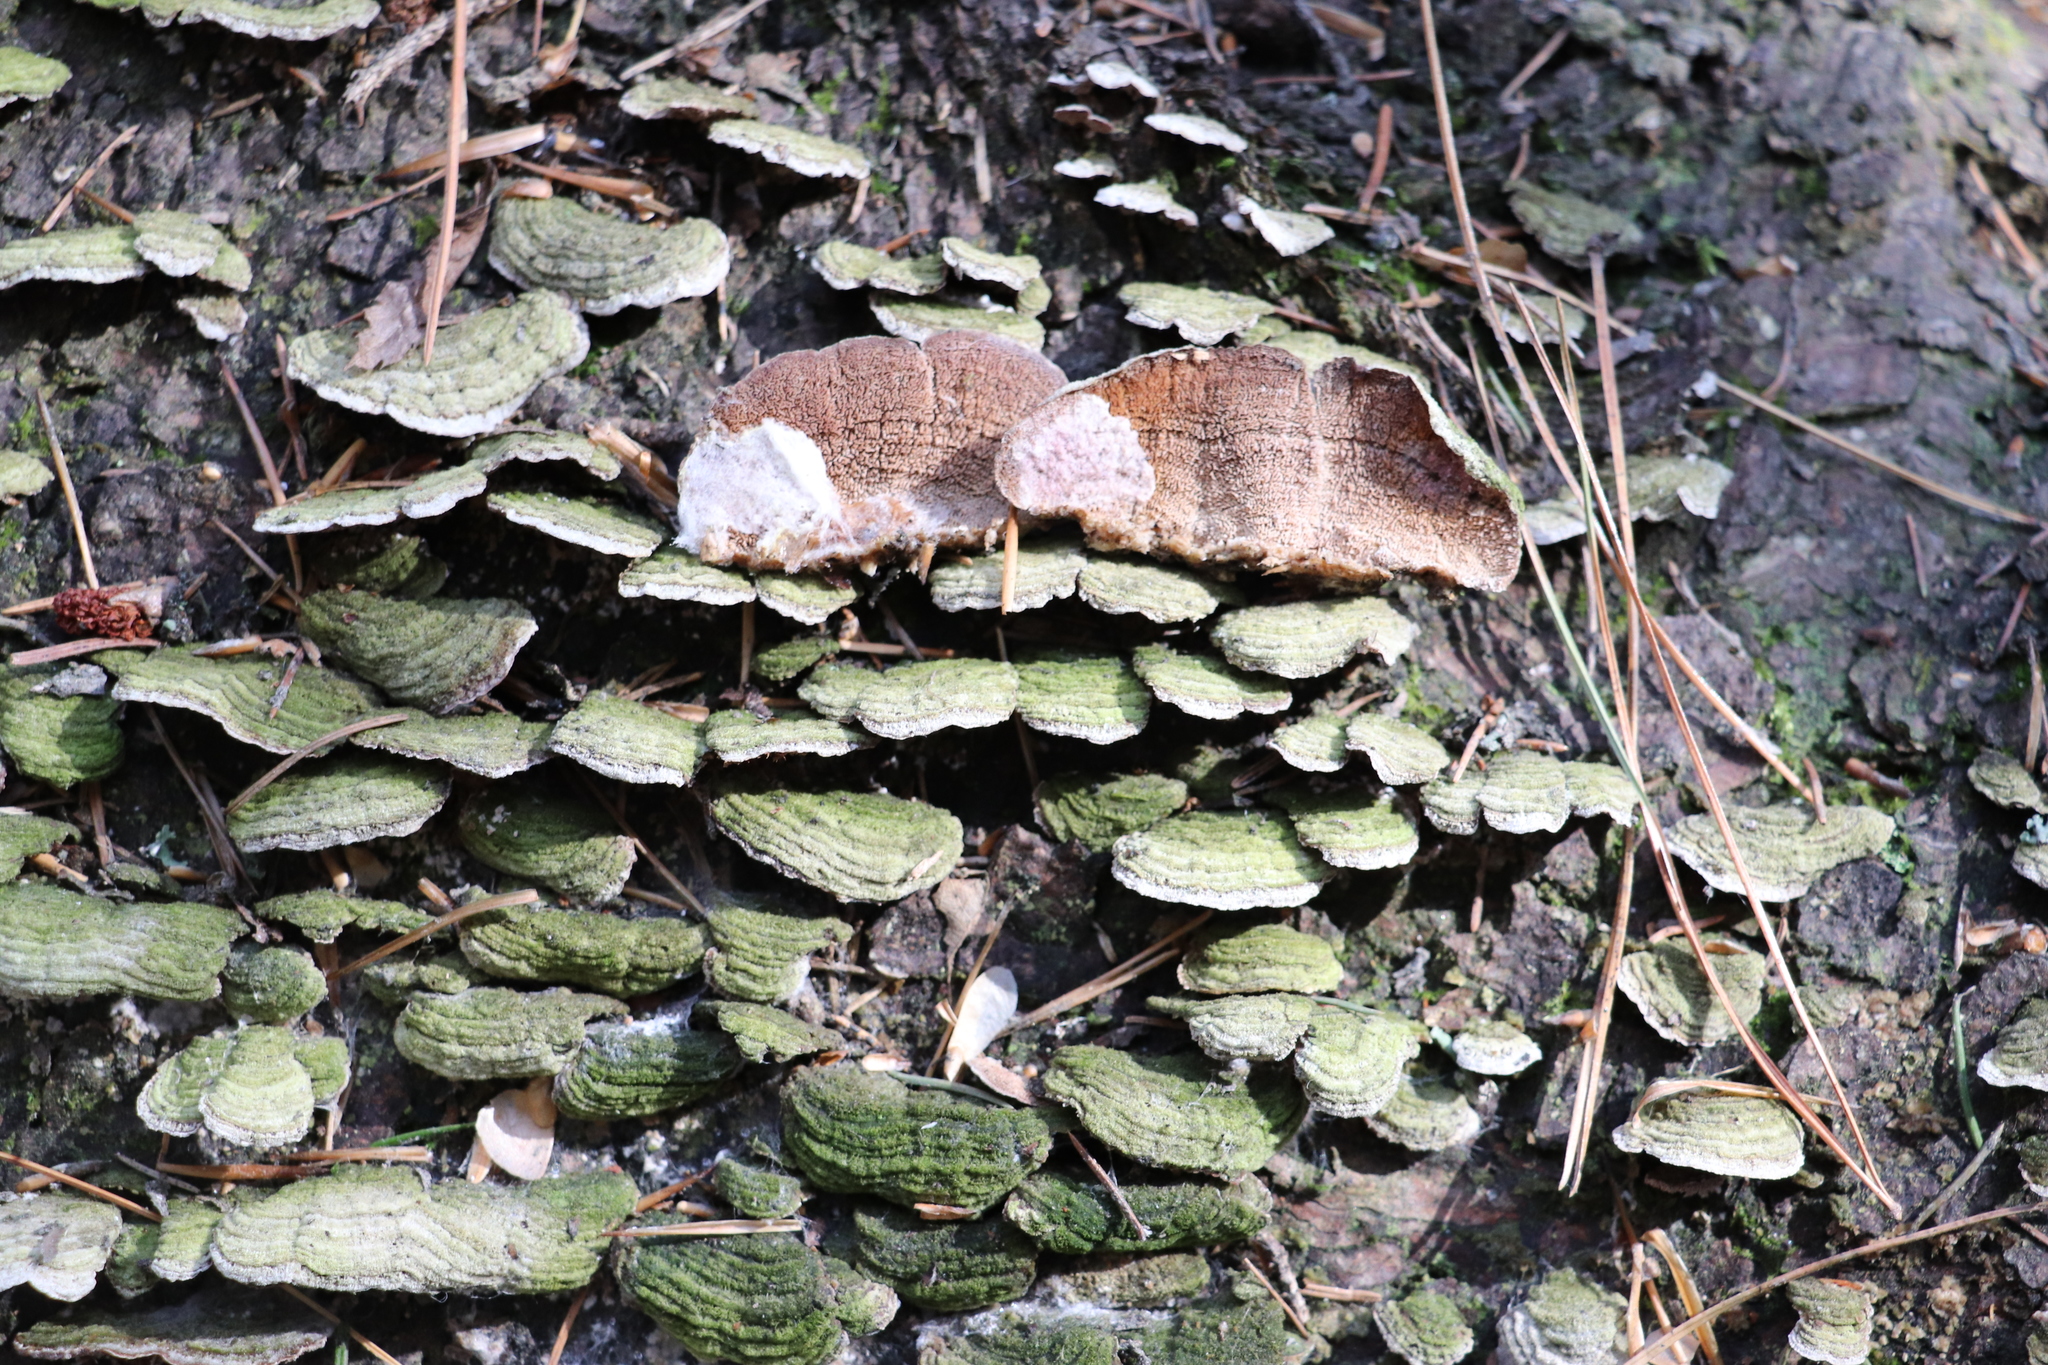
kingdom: Fungi
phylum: Basidiomycota
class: Agaricomycetes
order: Hymenochaetales
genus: Trichaptum
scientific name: Trichaptum abietinum
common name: Purplepore bracket
